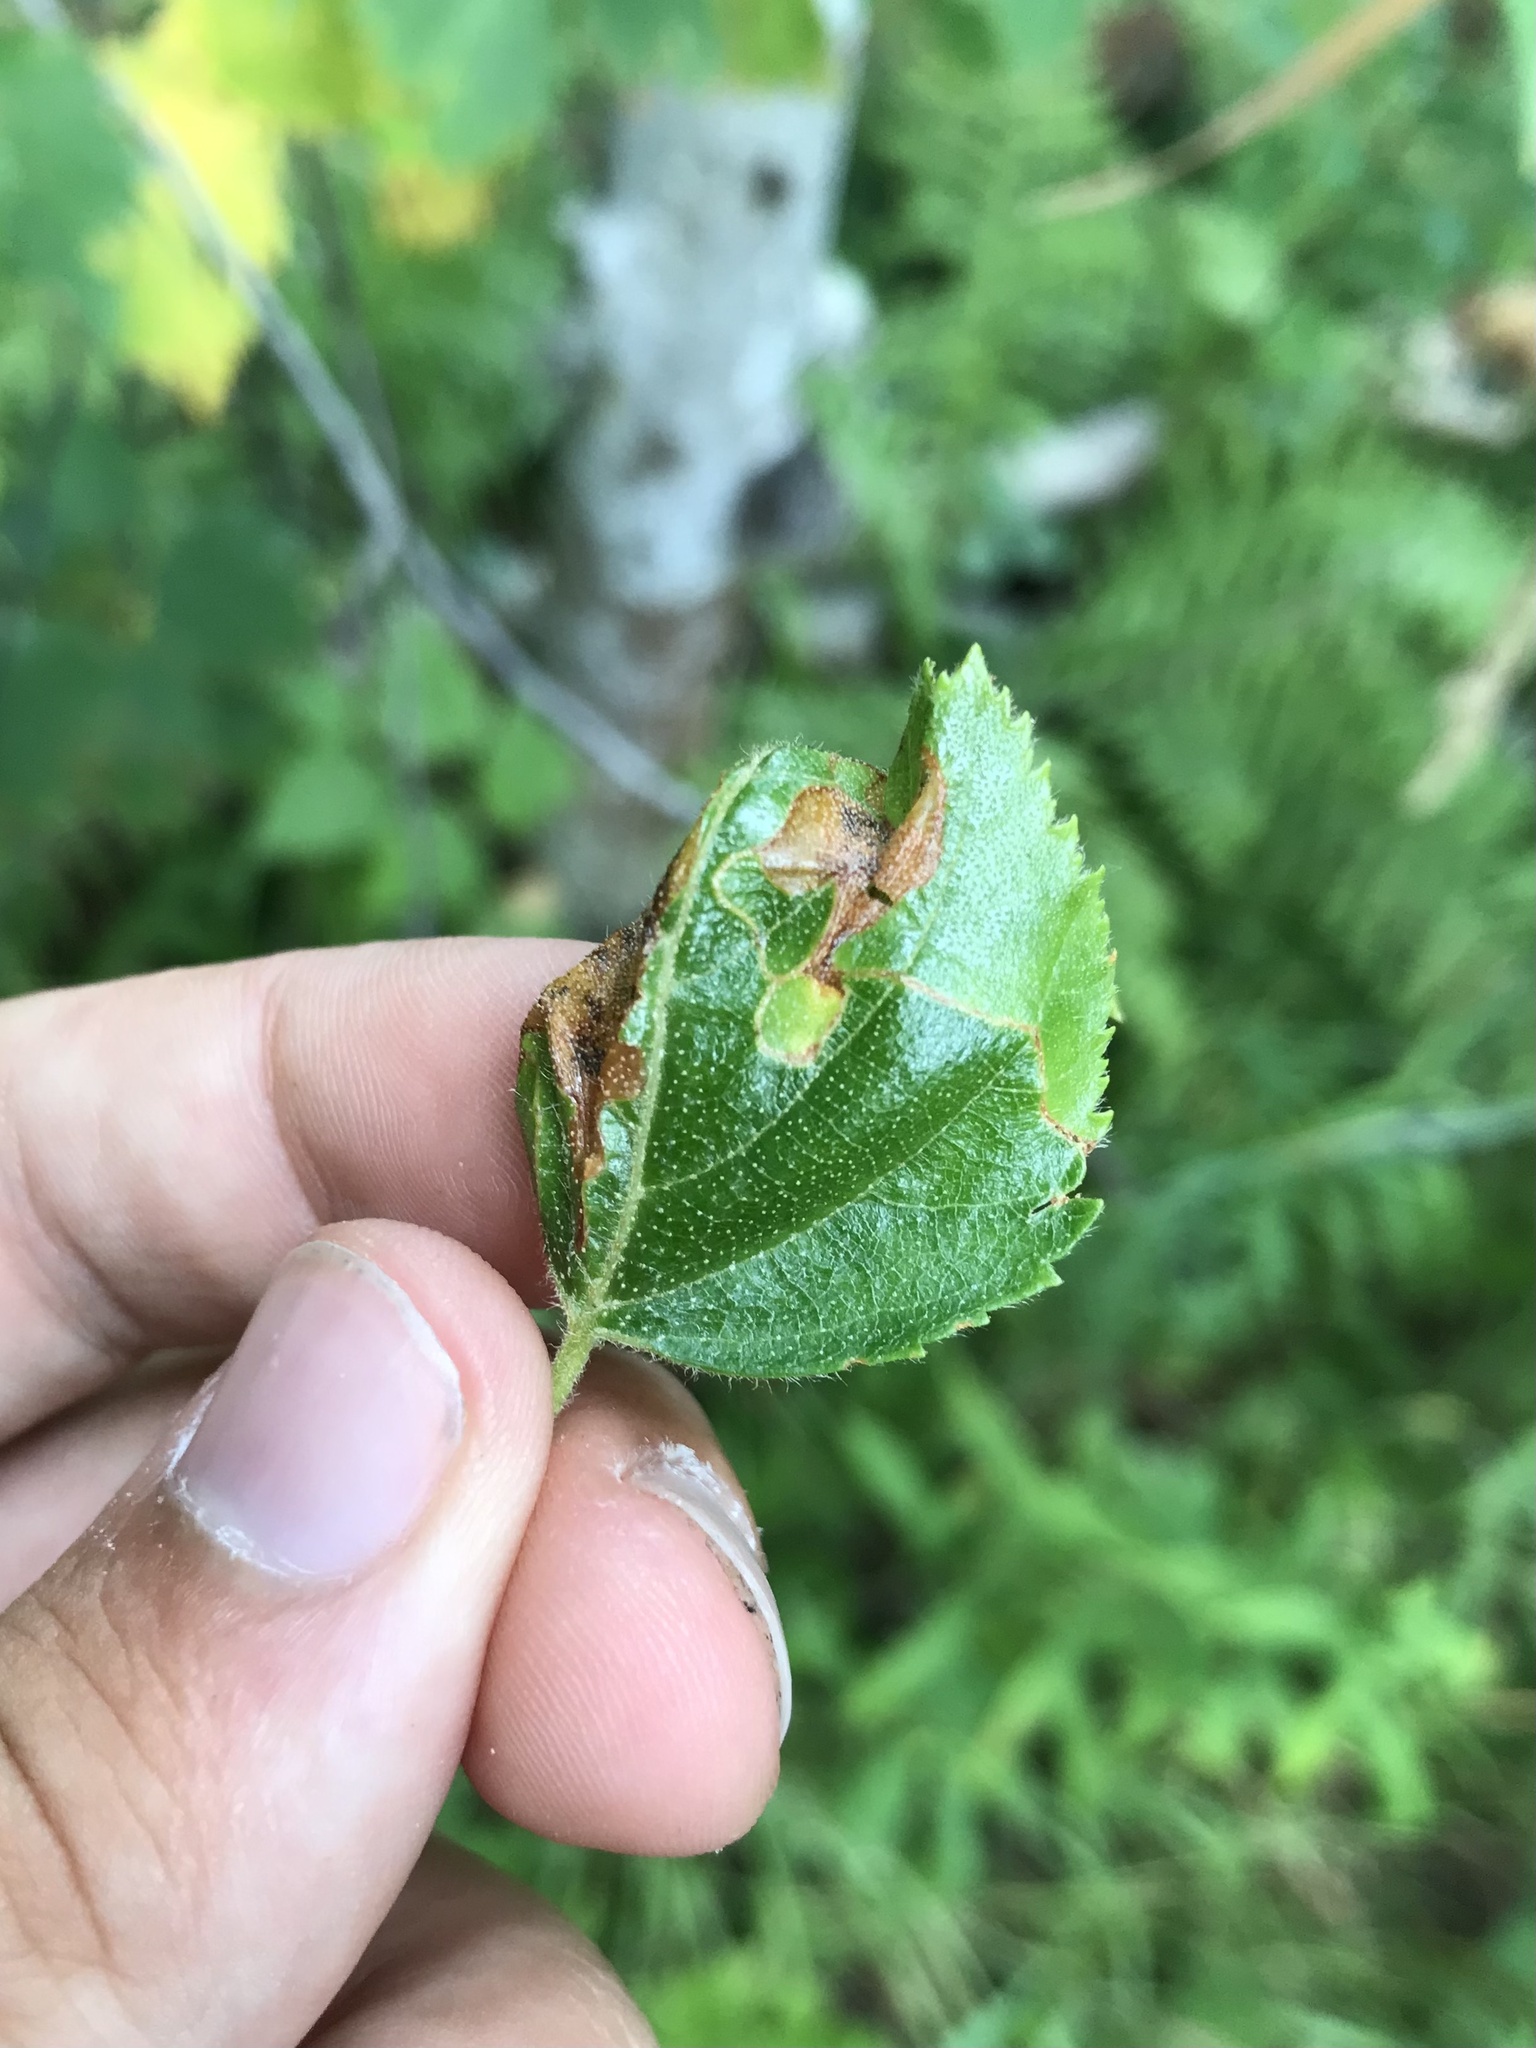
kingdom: Animalia
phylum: Arthropoda
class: Insecta
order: Lepidoptera
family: Lyonetiidae
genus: Lyonetia
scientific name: Lyonetia prunifoliella
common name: Striped bent-wing
